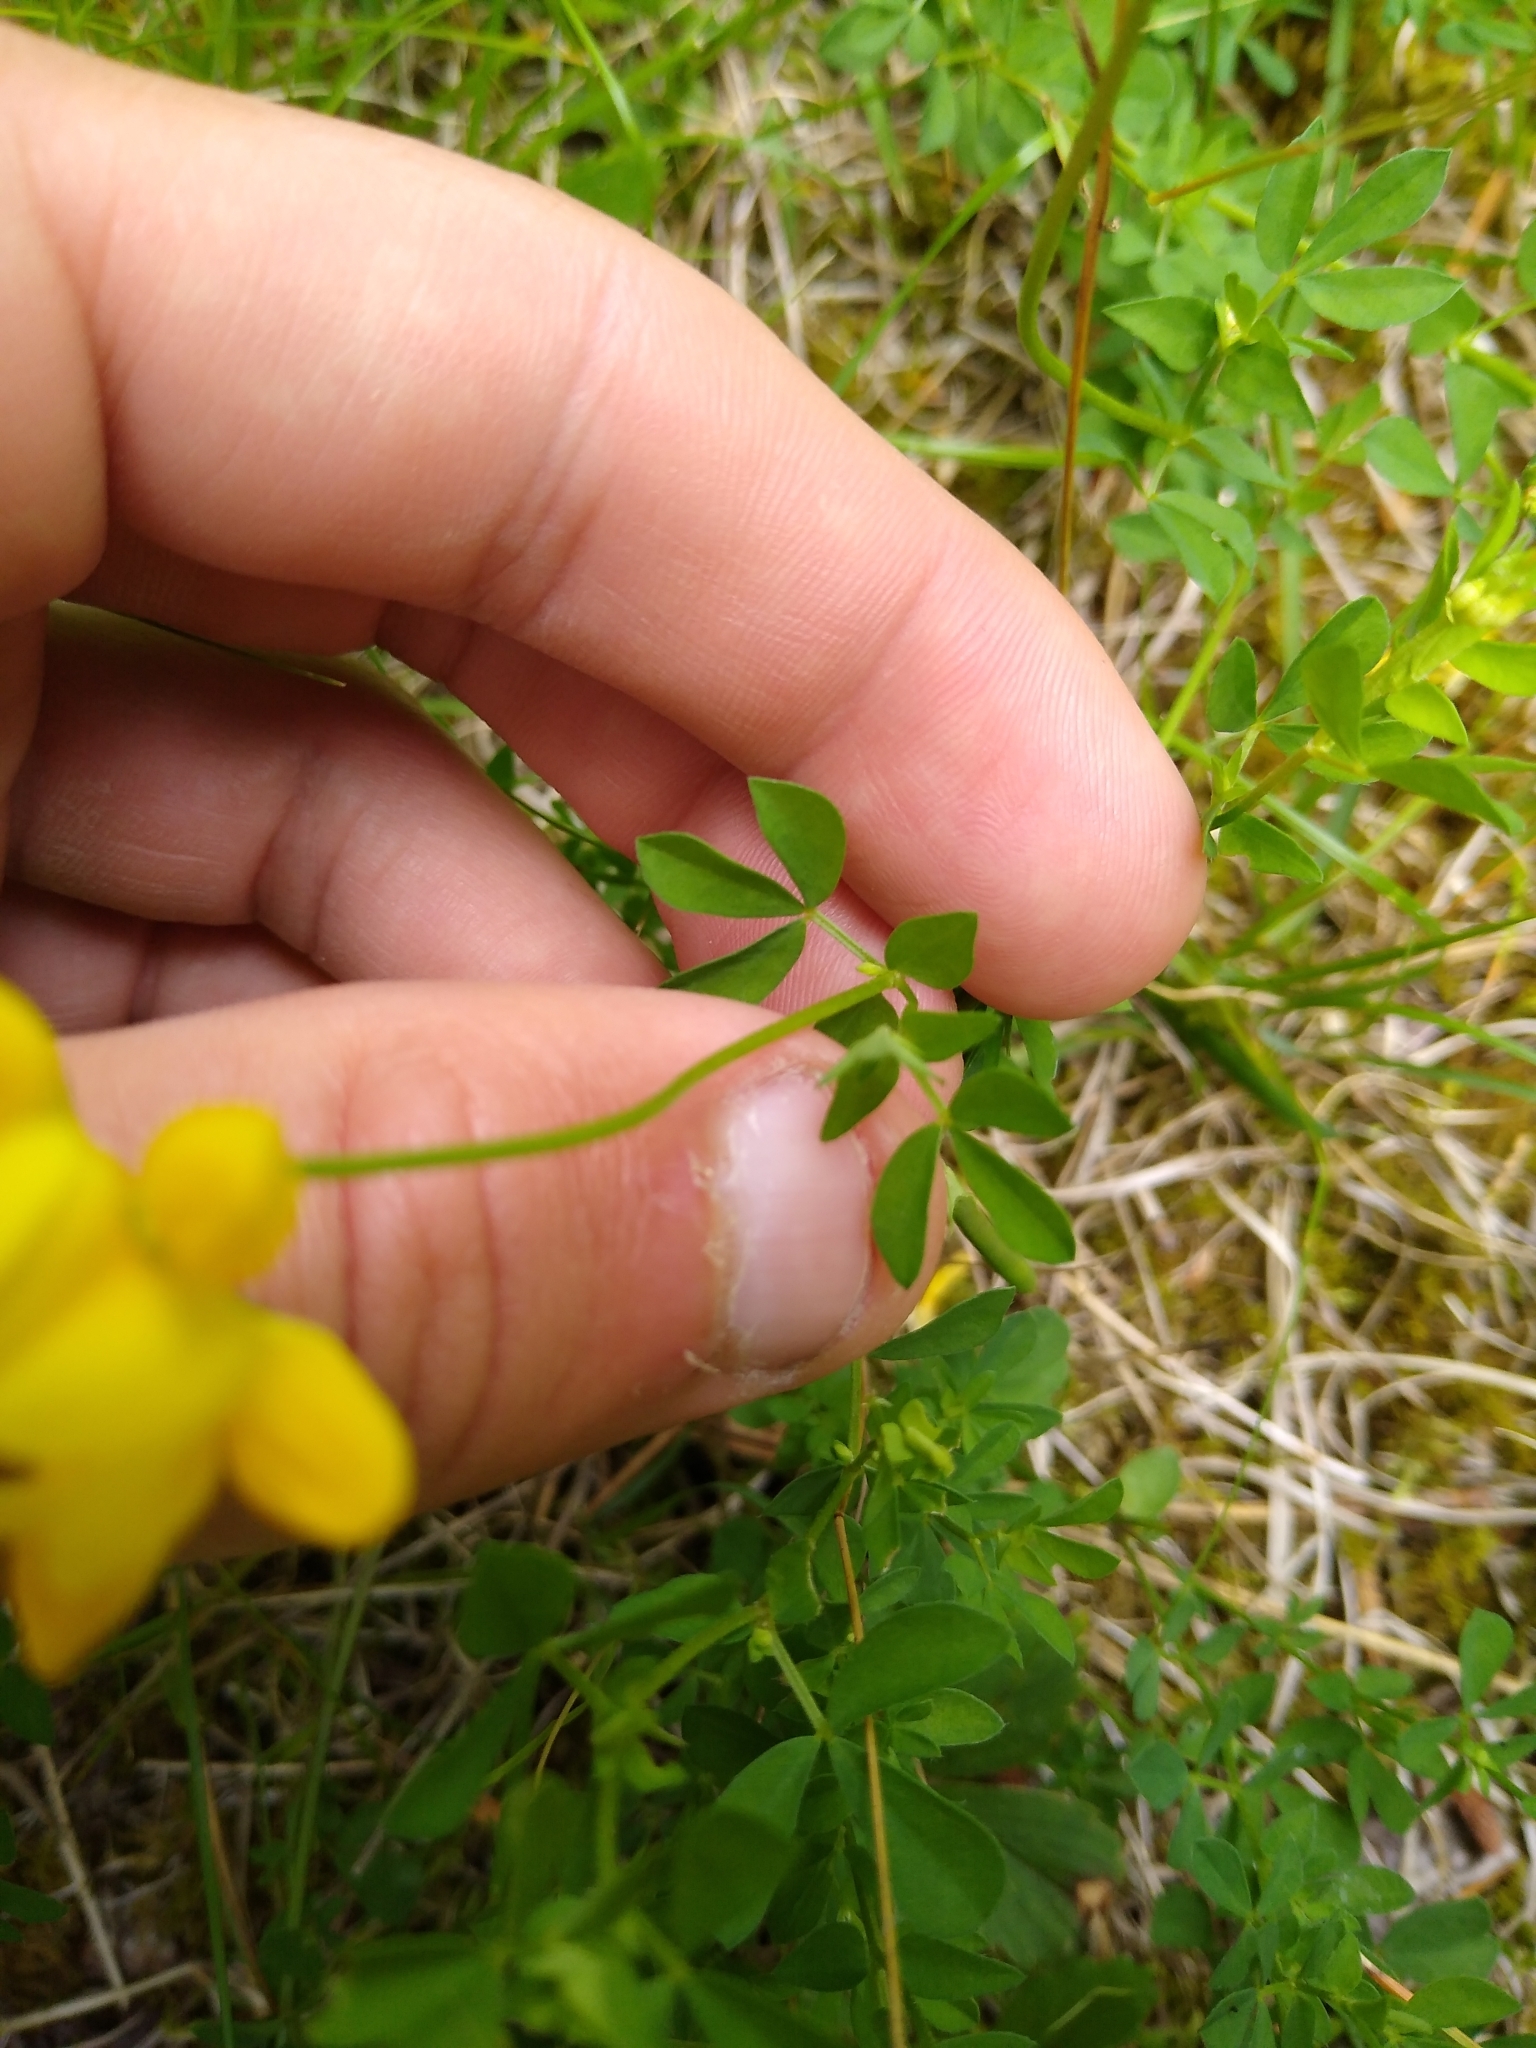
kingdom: Plantae
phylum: Tracheophyta
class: Magnoliopsida
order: Fabales
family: Fabaceae
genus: Lotus
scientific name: Lotus corniculatus
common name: Common bird's-foot-trefoil
